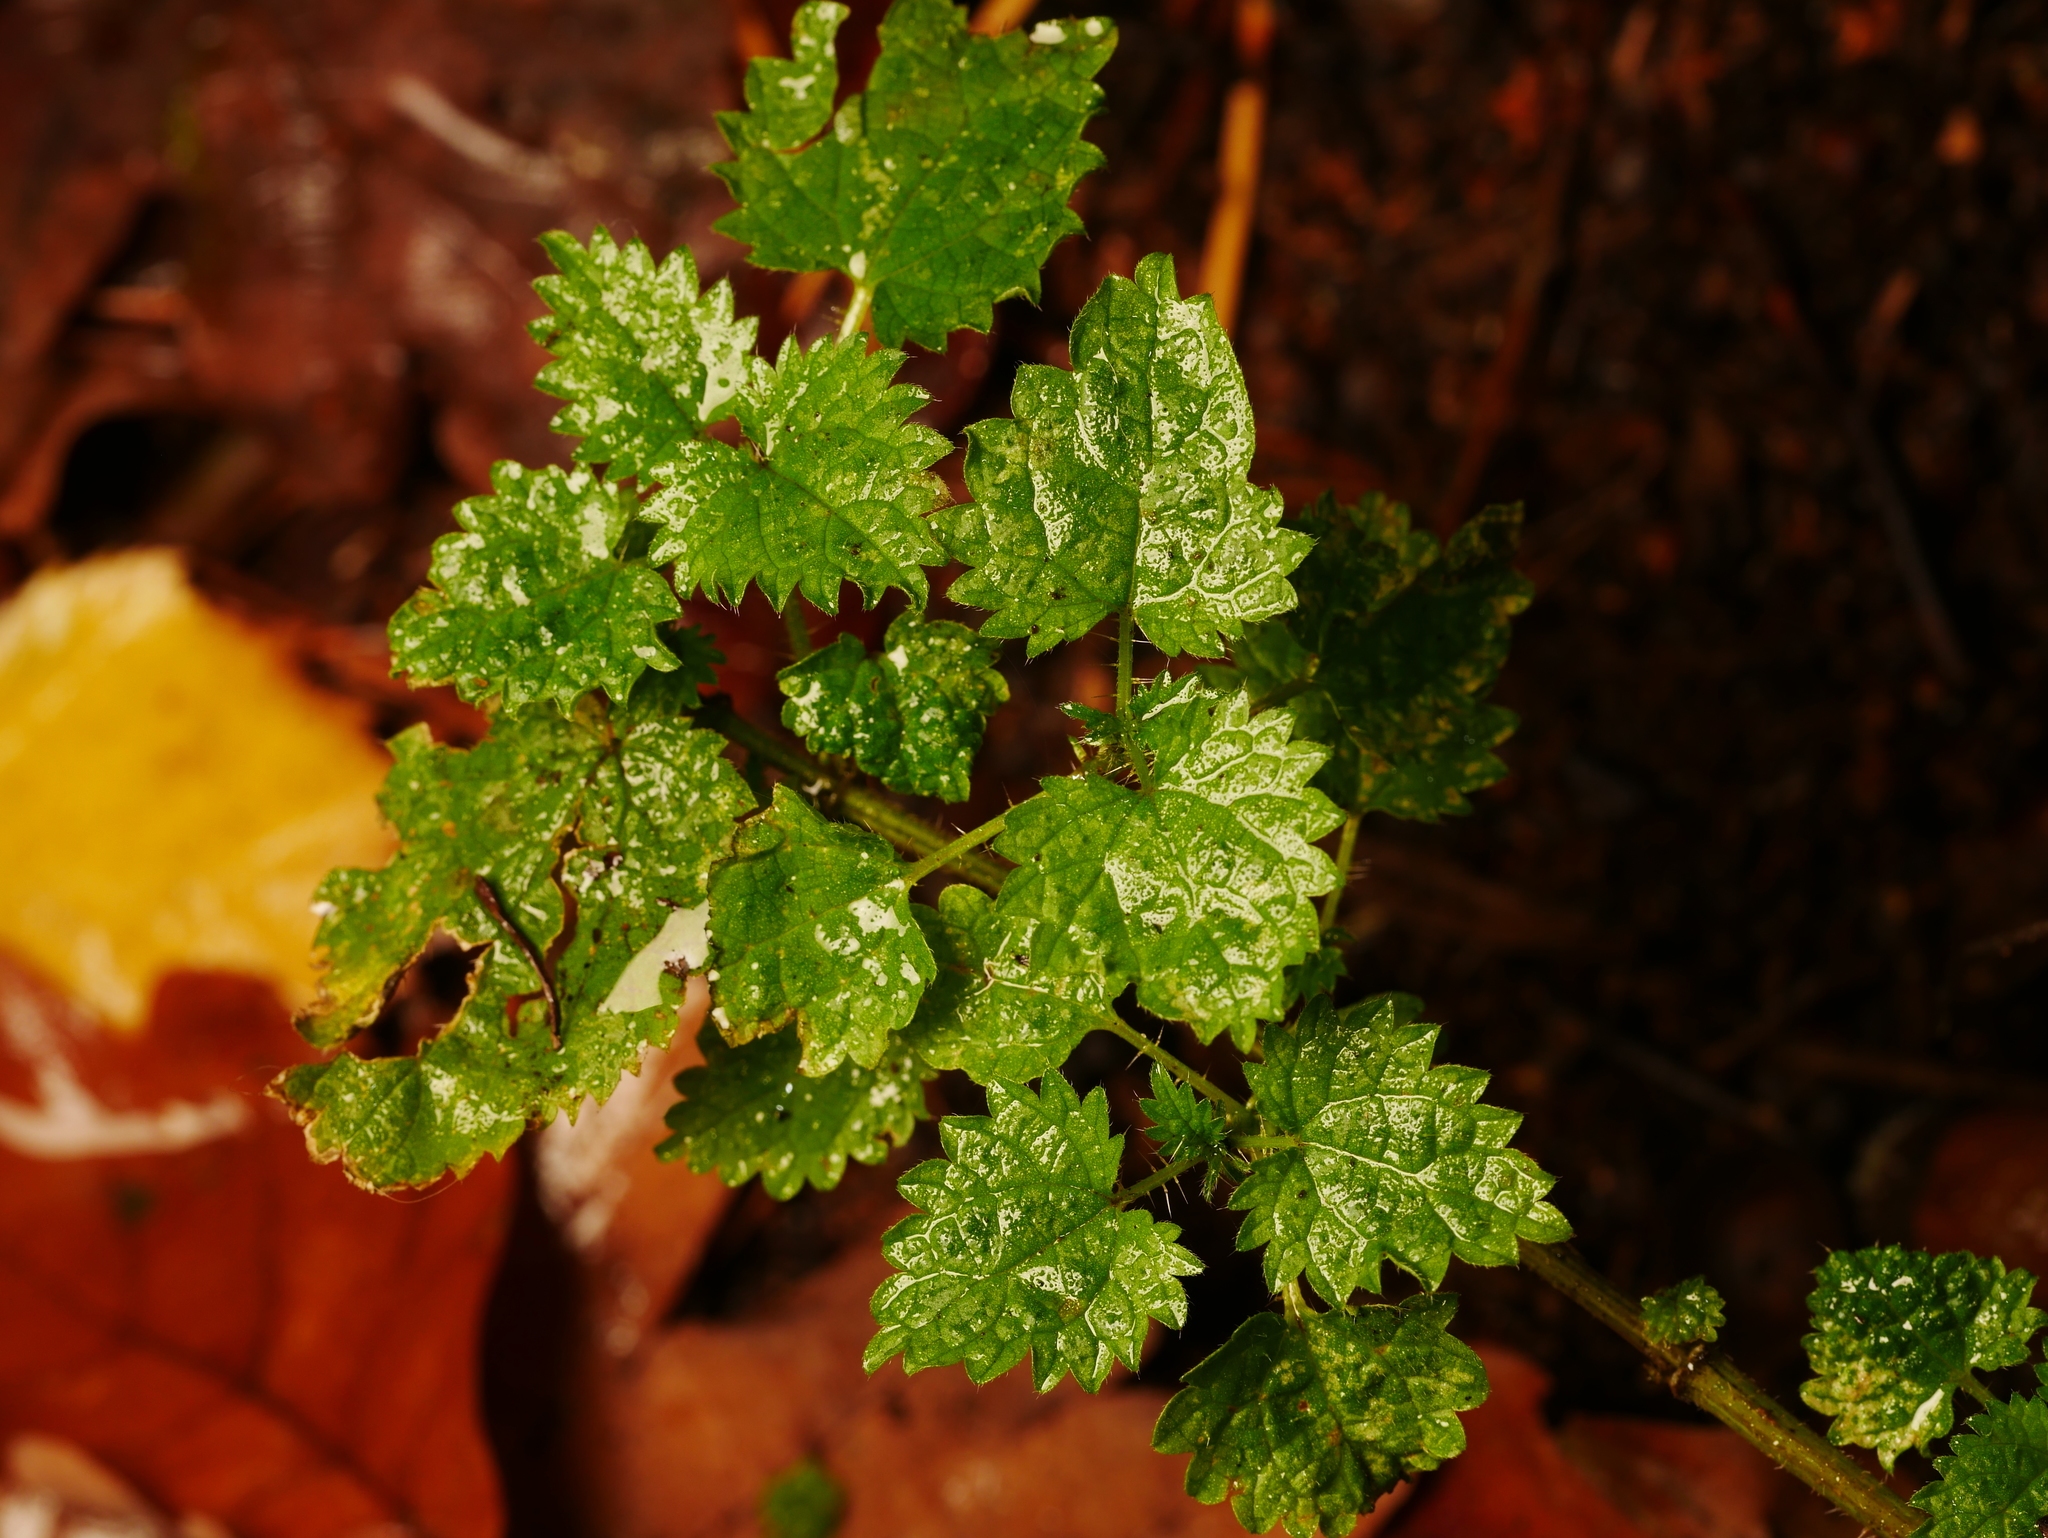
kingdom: Plantae
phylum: Tracheophyta
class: Magnoliopsida
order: Rosales
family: Urticaceae
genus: Urtica
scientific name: Urtica dioica
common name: Common nettle
